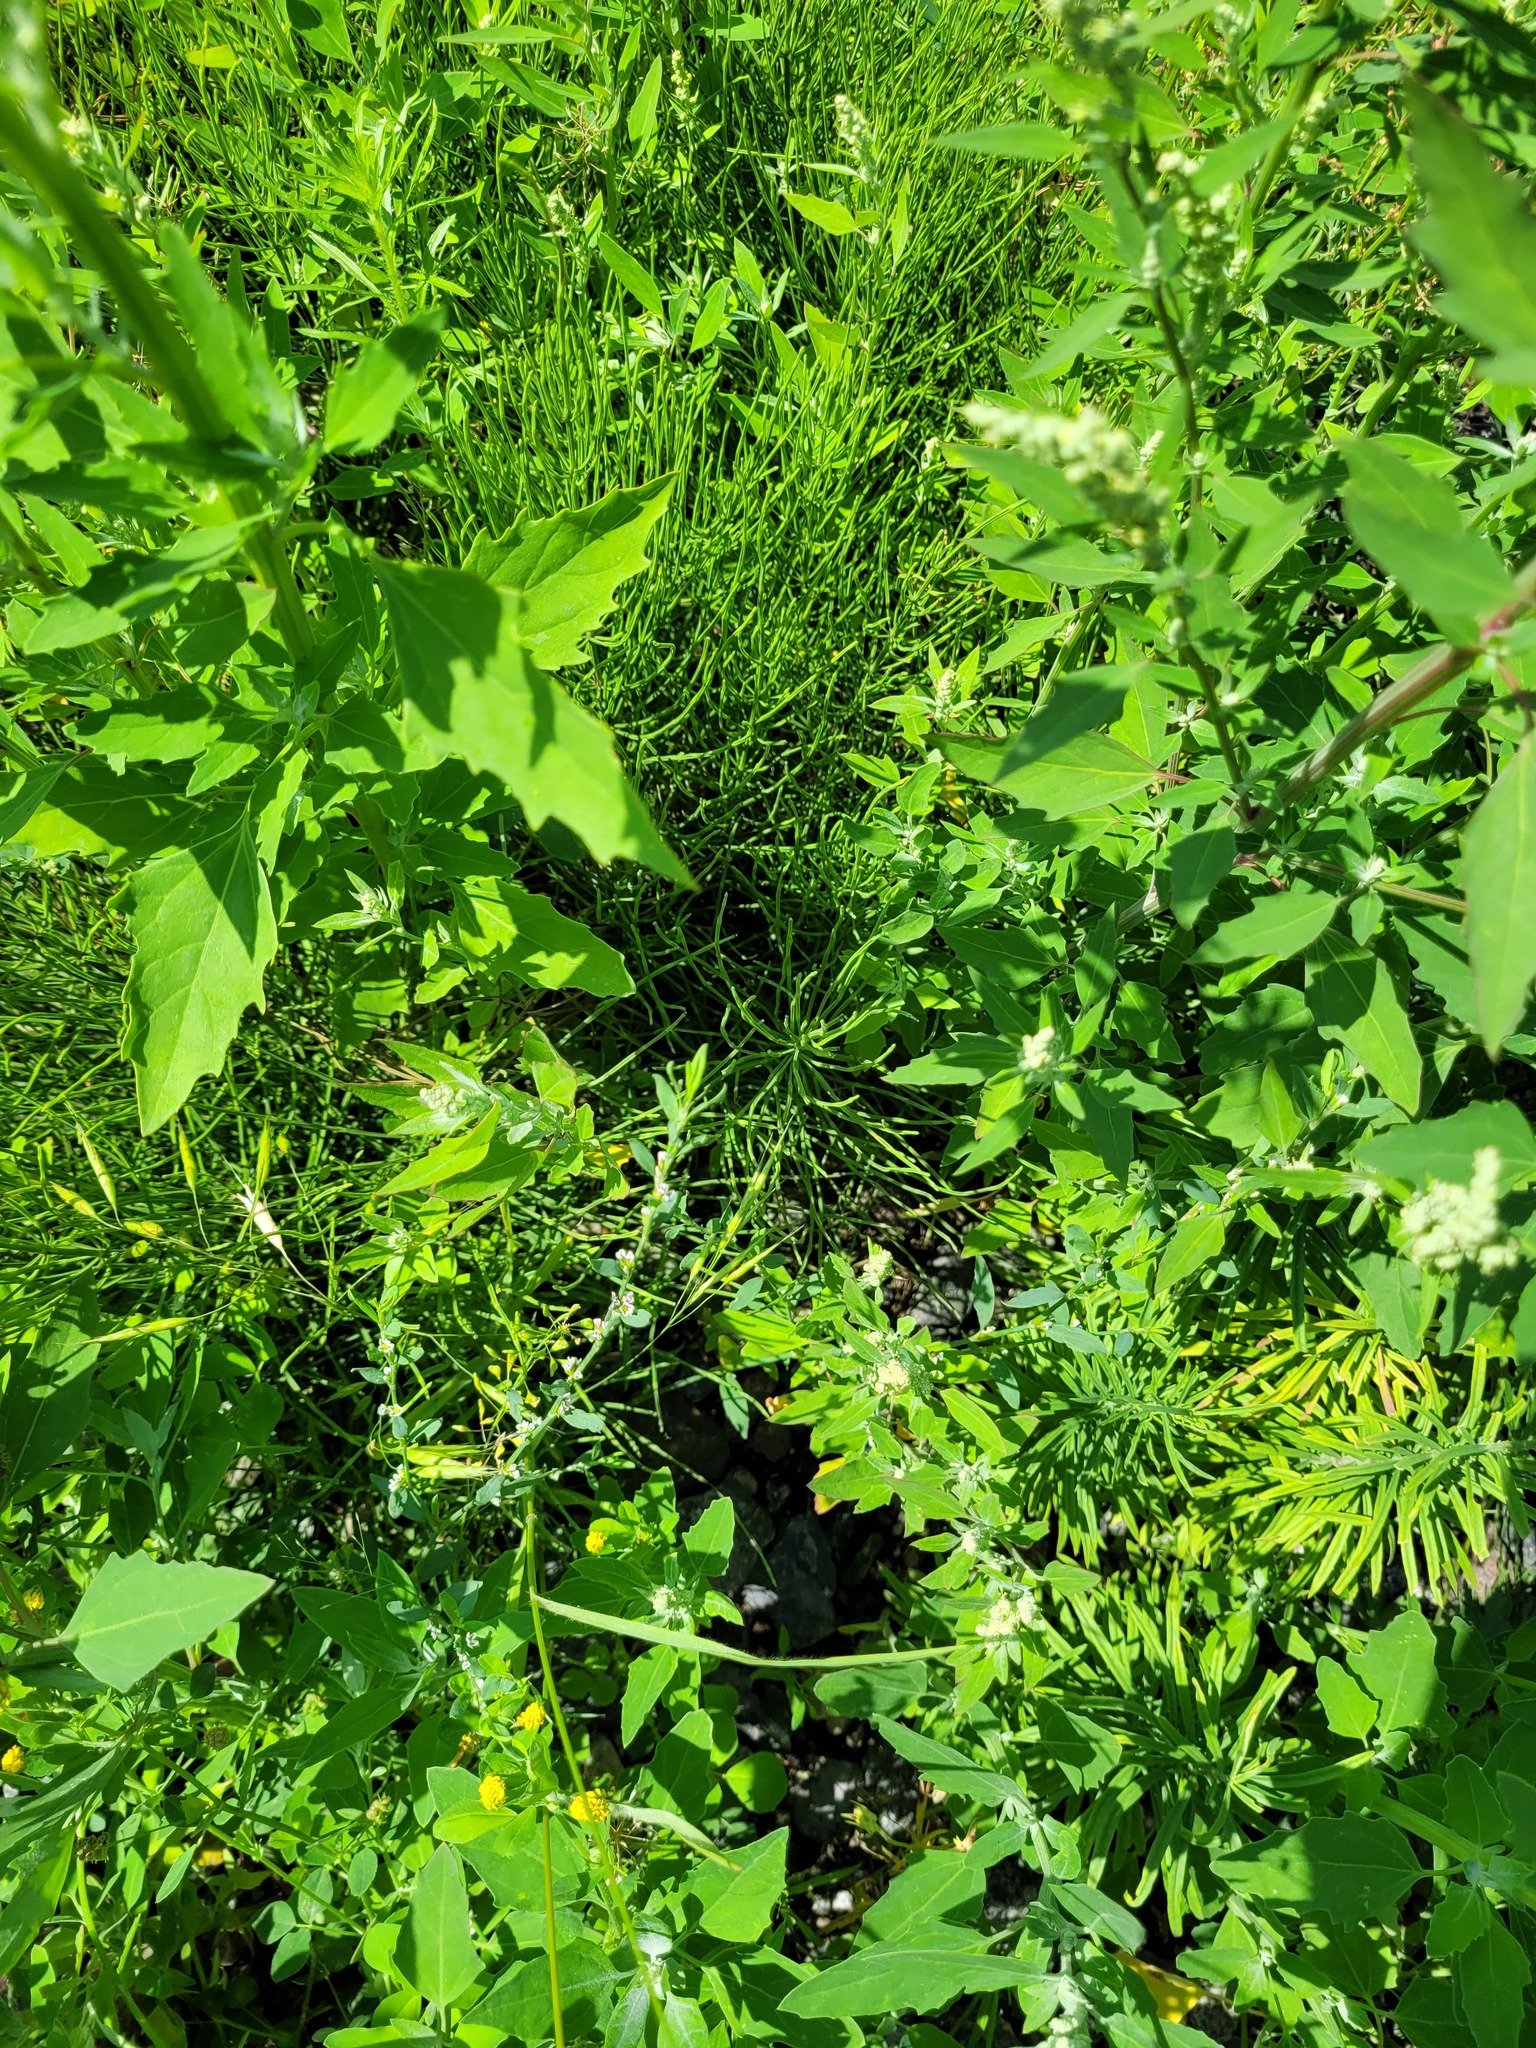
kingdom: Plantae
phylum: Tracheophyta
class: Polypodiopsida
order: Equisetales
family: Equisetaceae
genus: Equisetum
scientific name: Equisetum arvense
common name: Field horsetail
